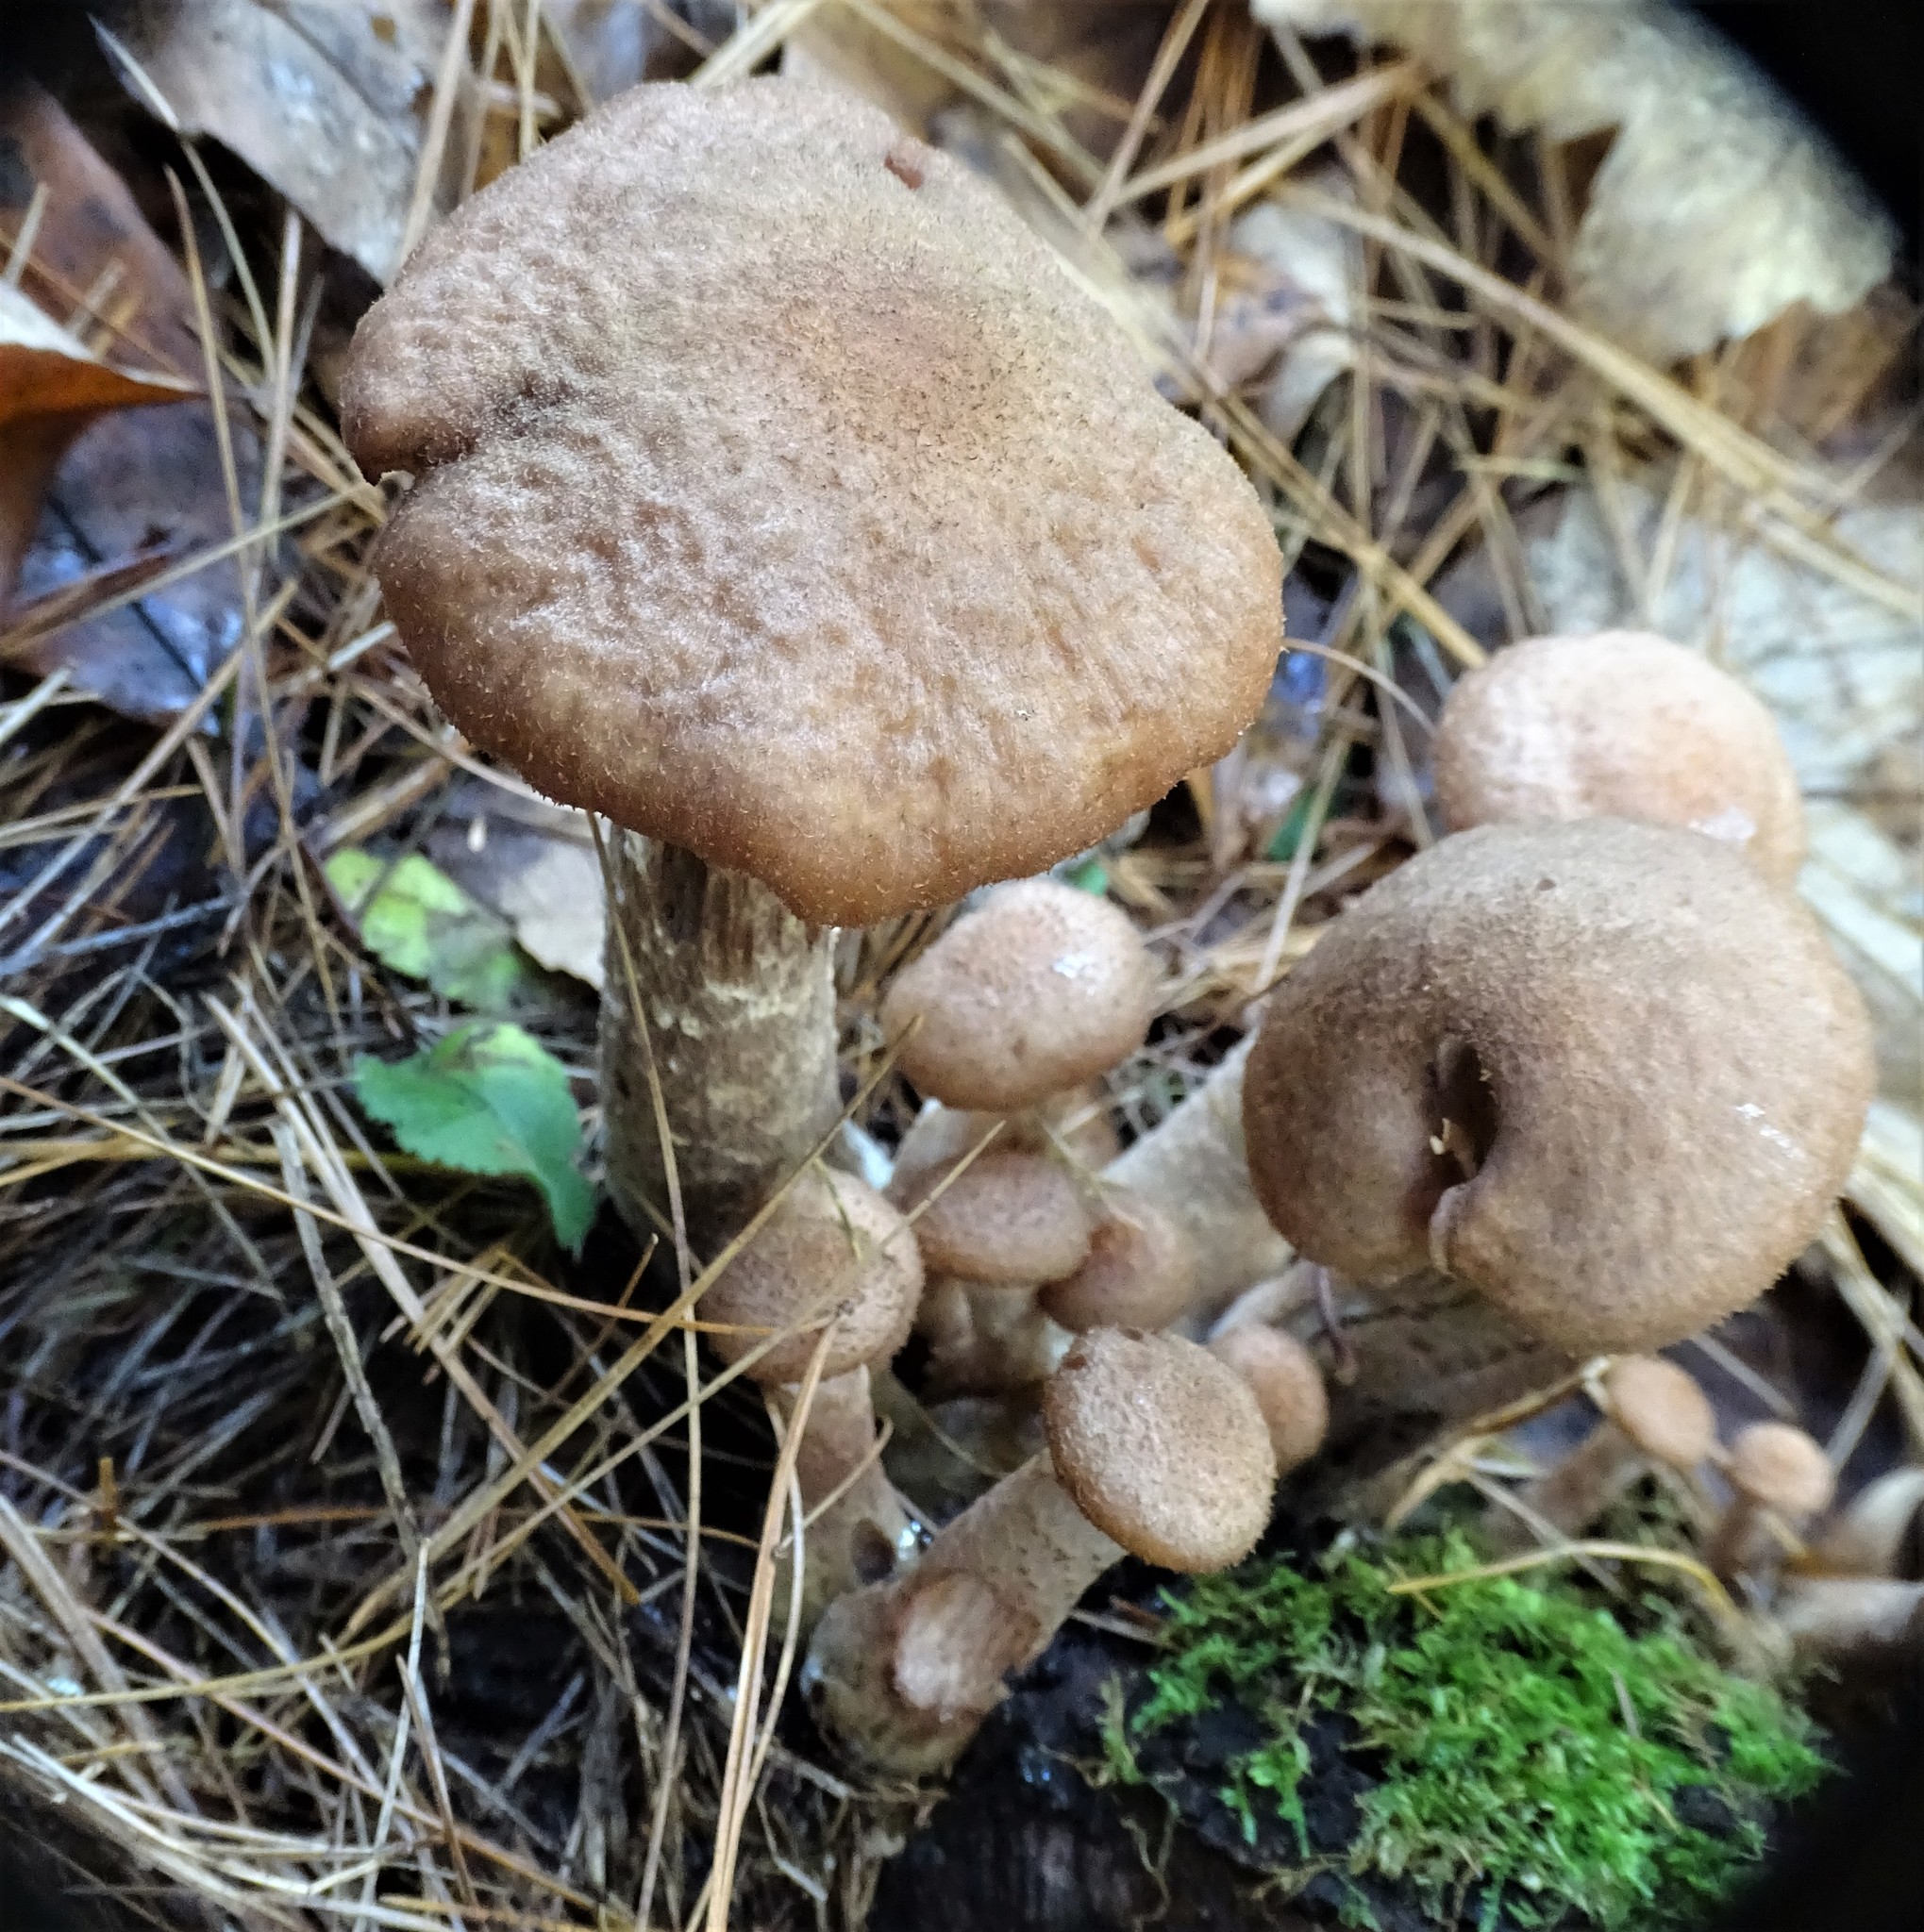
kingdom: Fungi
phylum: Basidiomycota
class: Agaricomycetes
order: Agaricales
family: Physalacriaceae
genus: Armillaria
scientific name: Armillaria ostoyae
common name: Dark honey fungus
